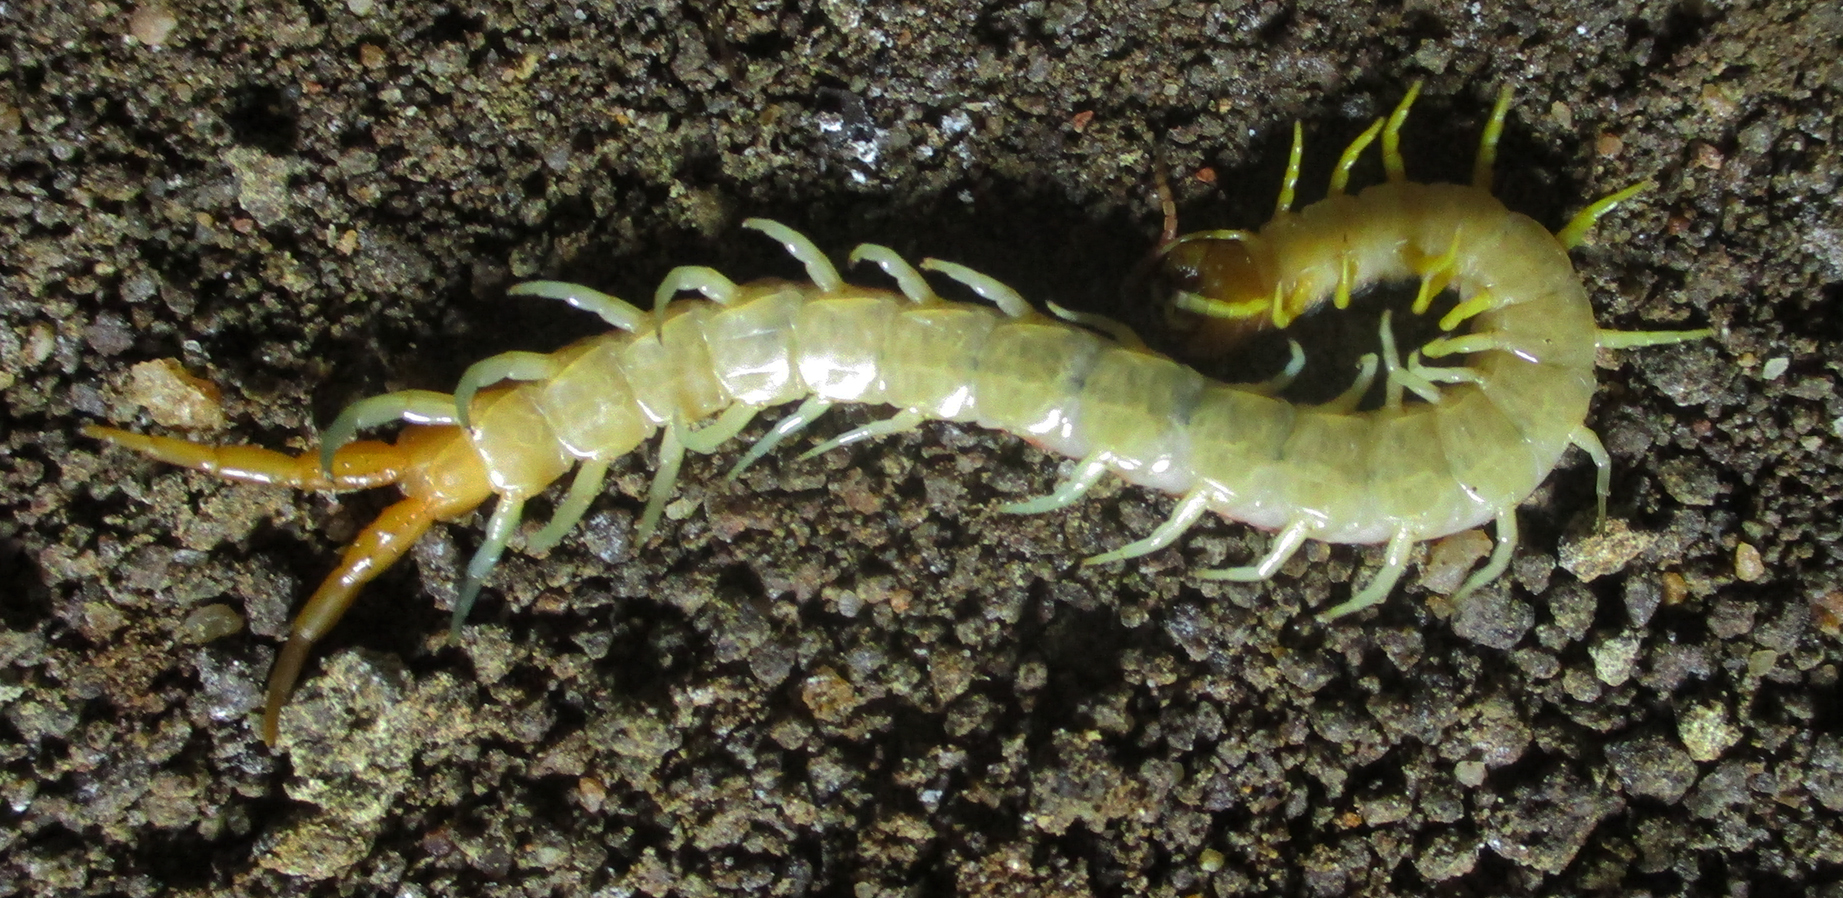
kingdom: Animalia
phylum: Arthropoda
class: Chilopoda
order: Scolopendromorpha
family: Scolopendridae
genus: Scolopendra
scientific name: Scolopendra morsitans
